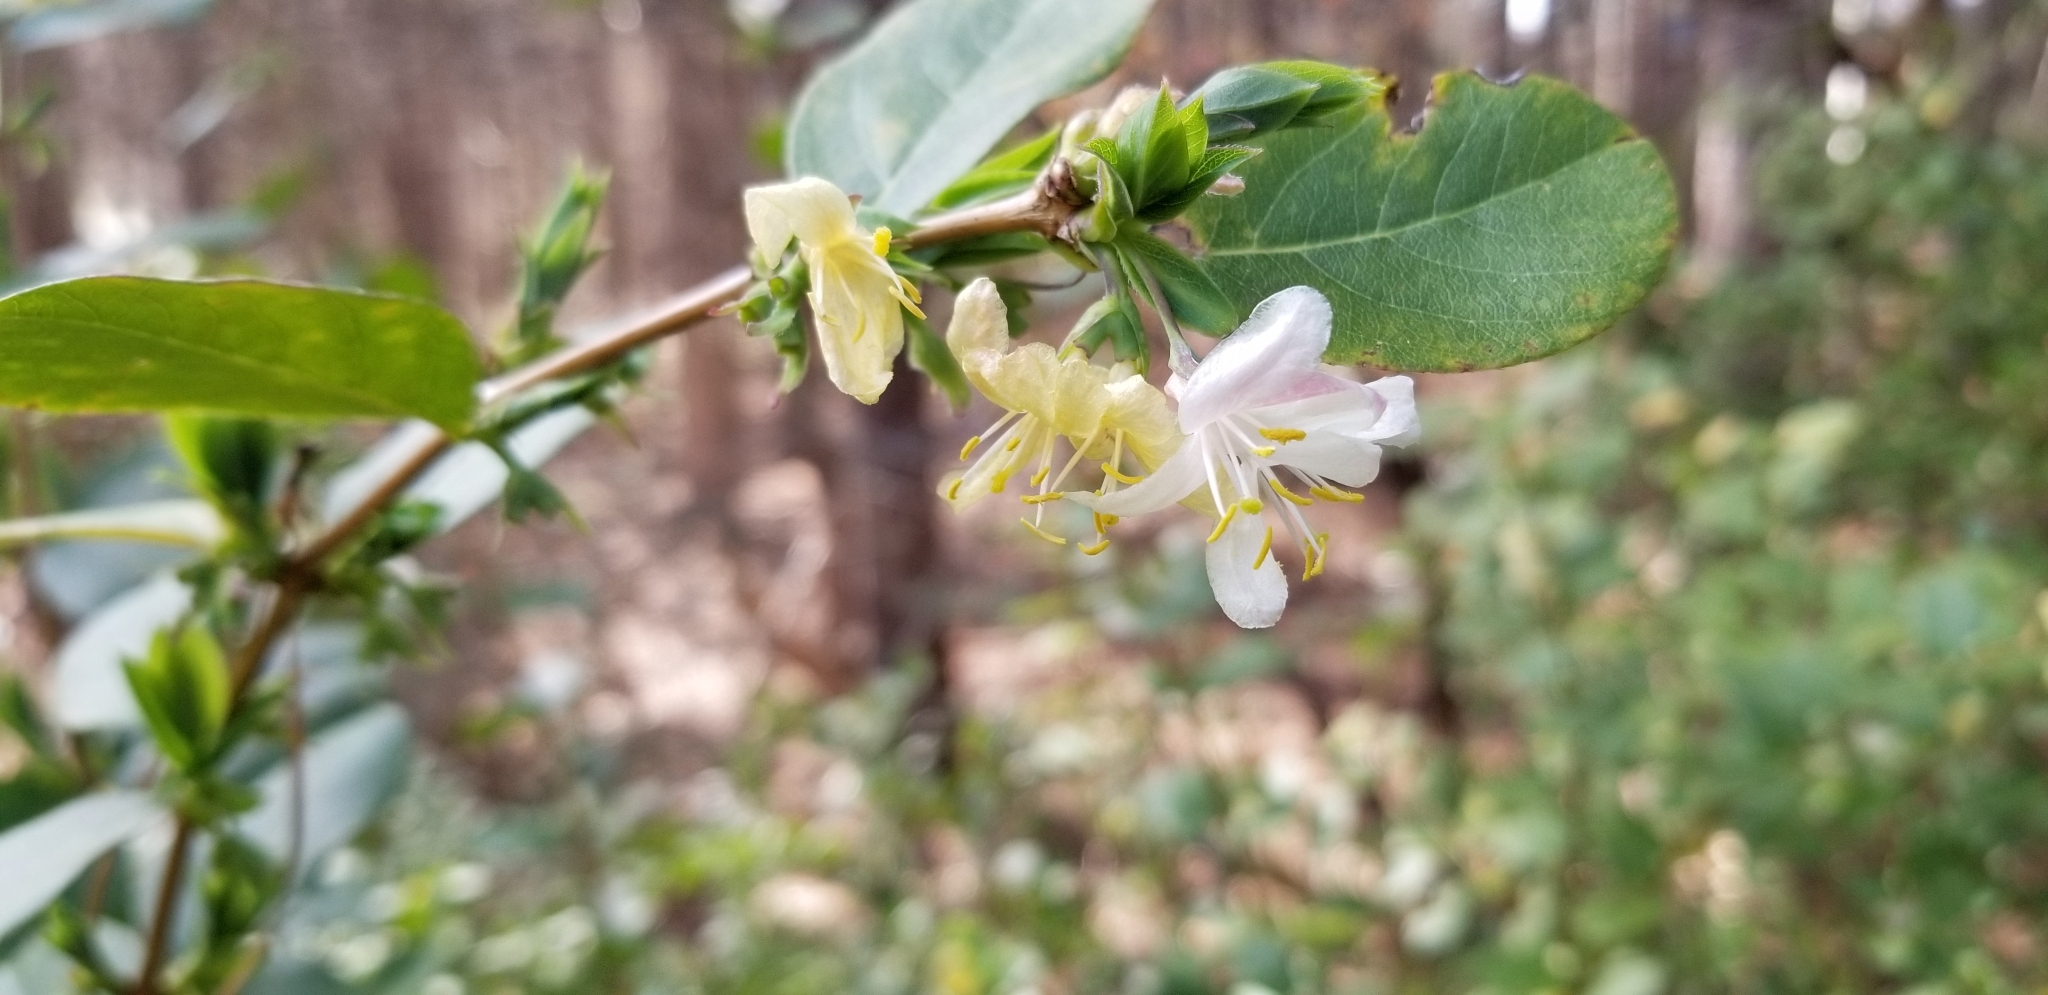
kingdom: Plantae
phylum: Tracheophyta
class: Magnoliopsida
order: Dipsacales
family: Caprifoliaceae
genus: Lonicera
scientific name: Lonicera fragrantissima
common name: Fragrant honeysuckle
